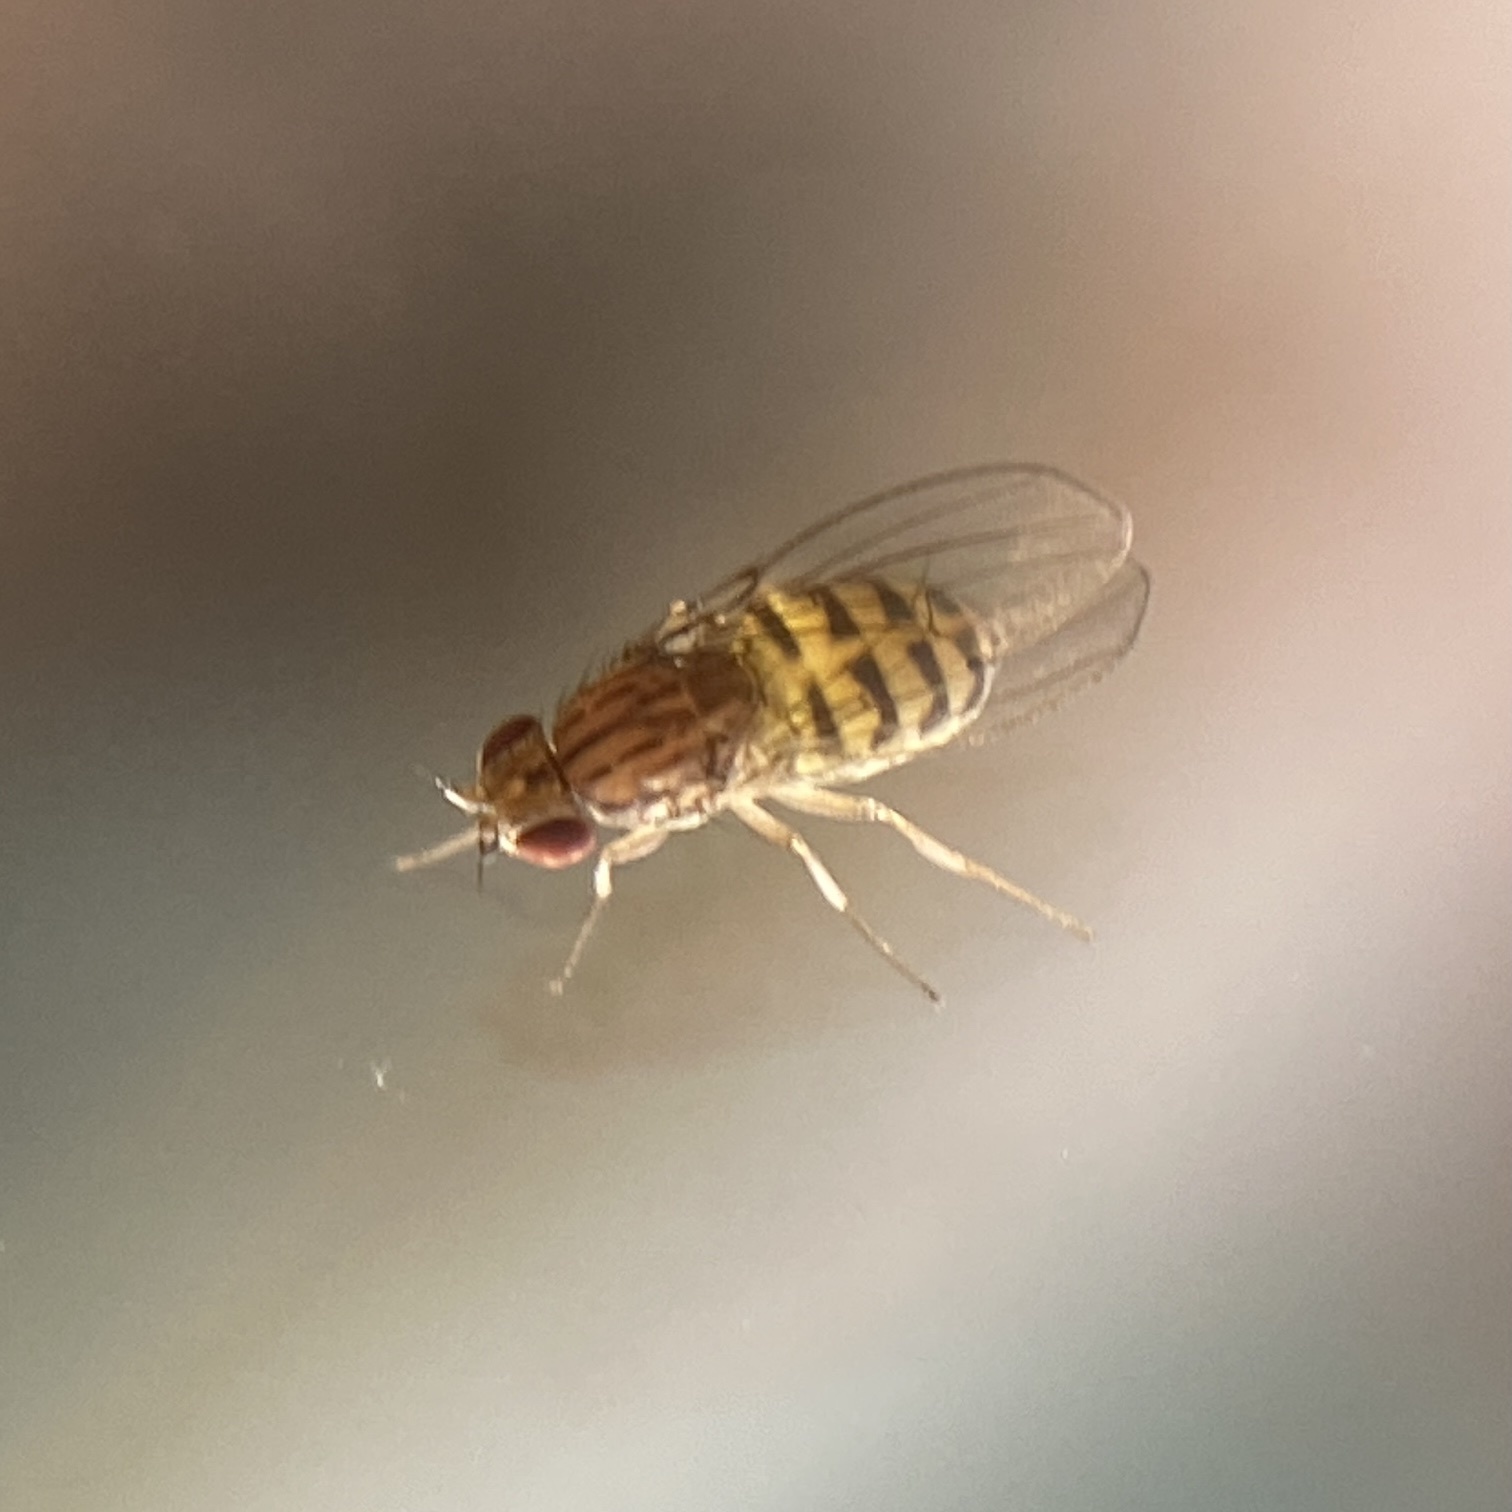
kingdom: Animalia
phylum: Arthropoda
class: Insecta
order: Diptera
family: Drosophilidae
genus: Drosophila
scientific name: Drosophila busckii
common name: Pomace fly
